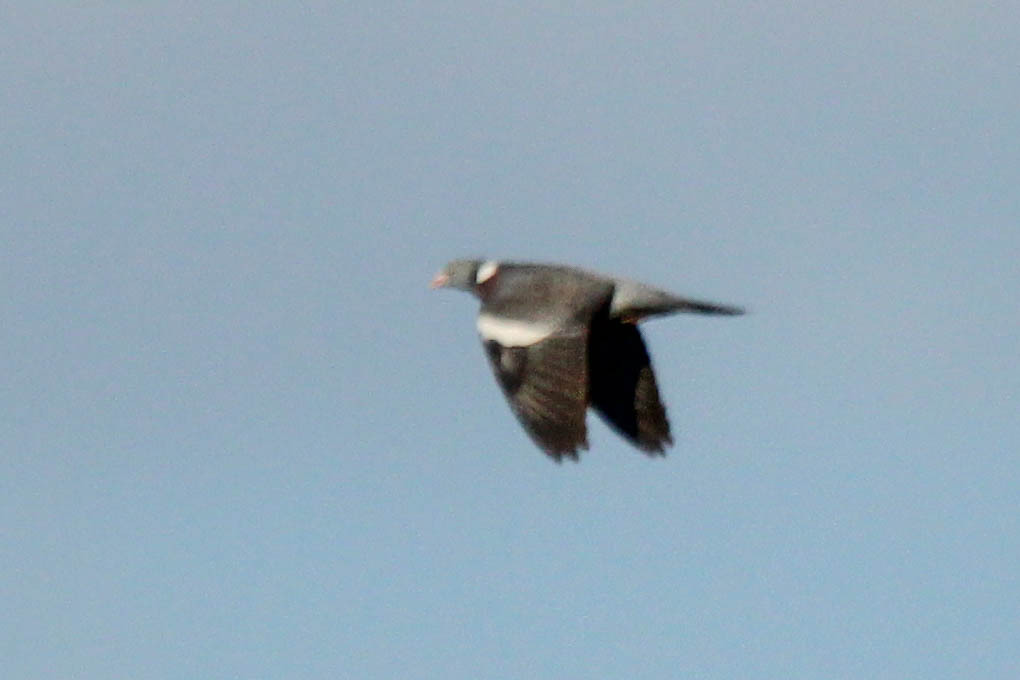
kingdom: Animalia
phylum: Chordata
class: Aves
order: Columbiformes
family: Columbidae
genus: Columba
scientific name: Columba palumbus
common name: Common wood pigeon
